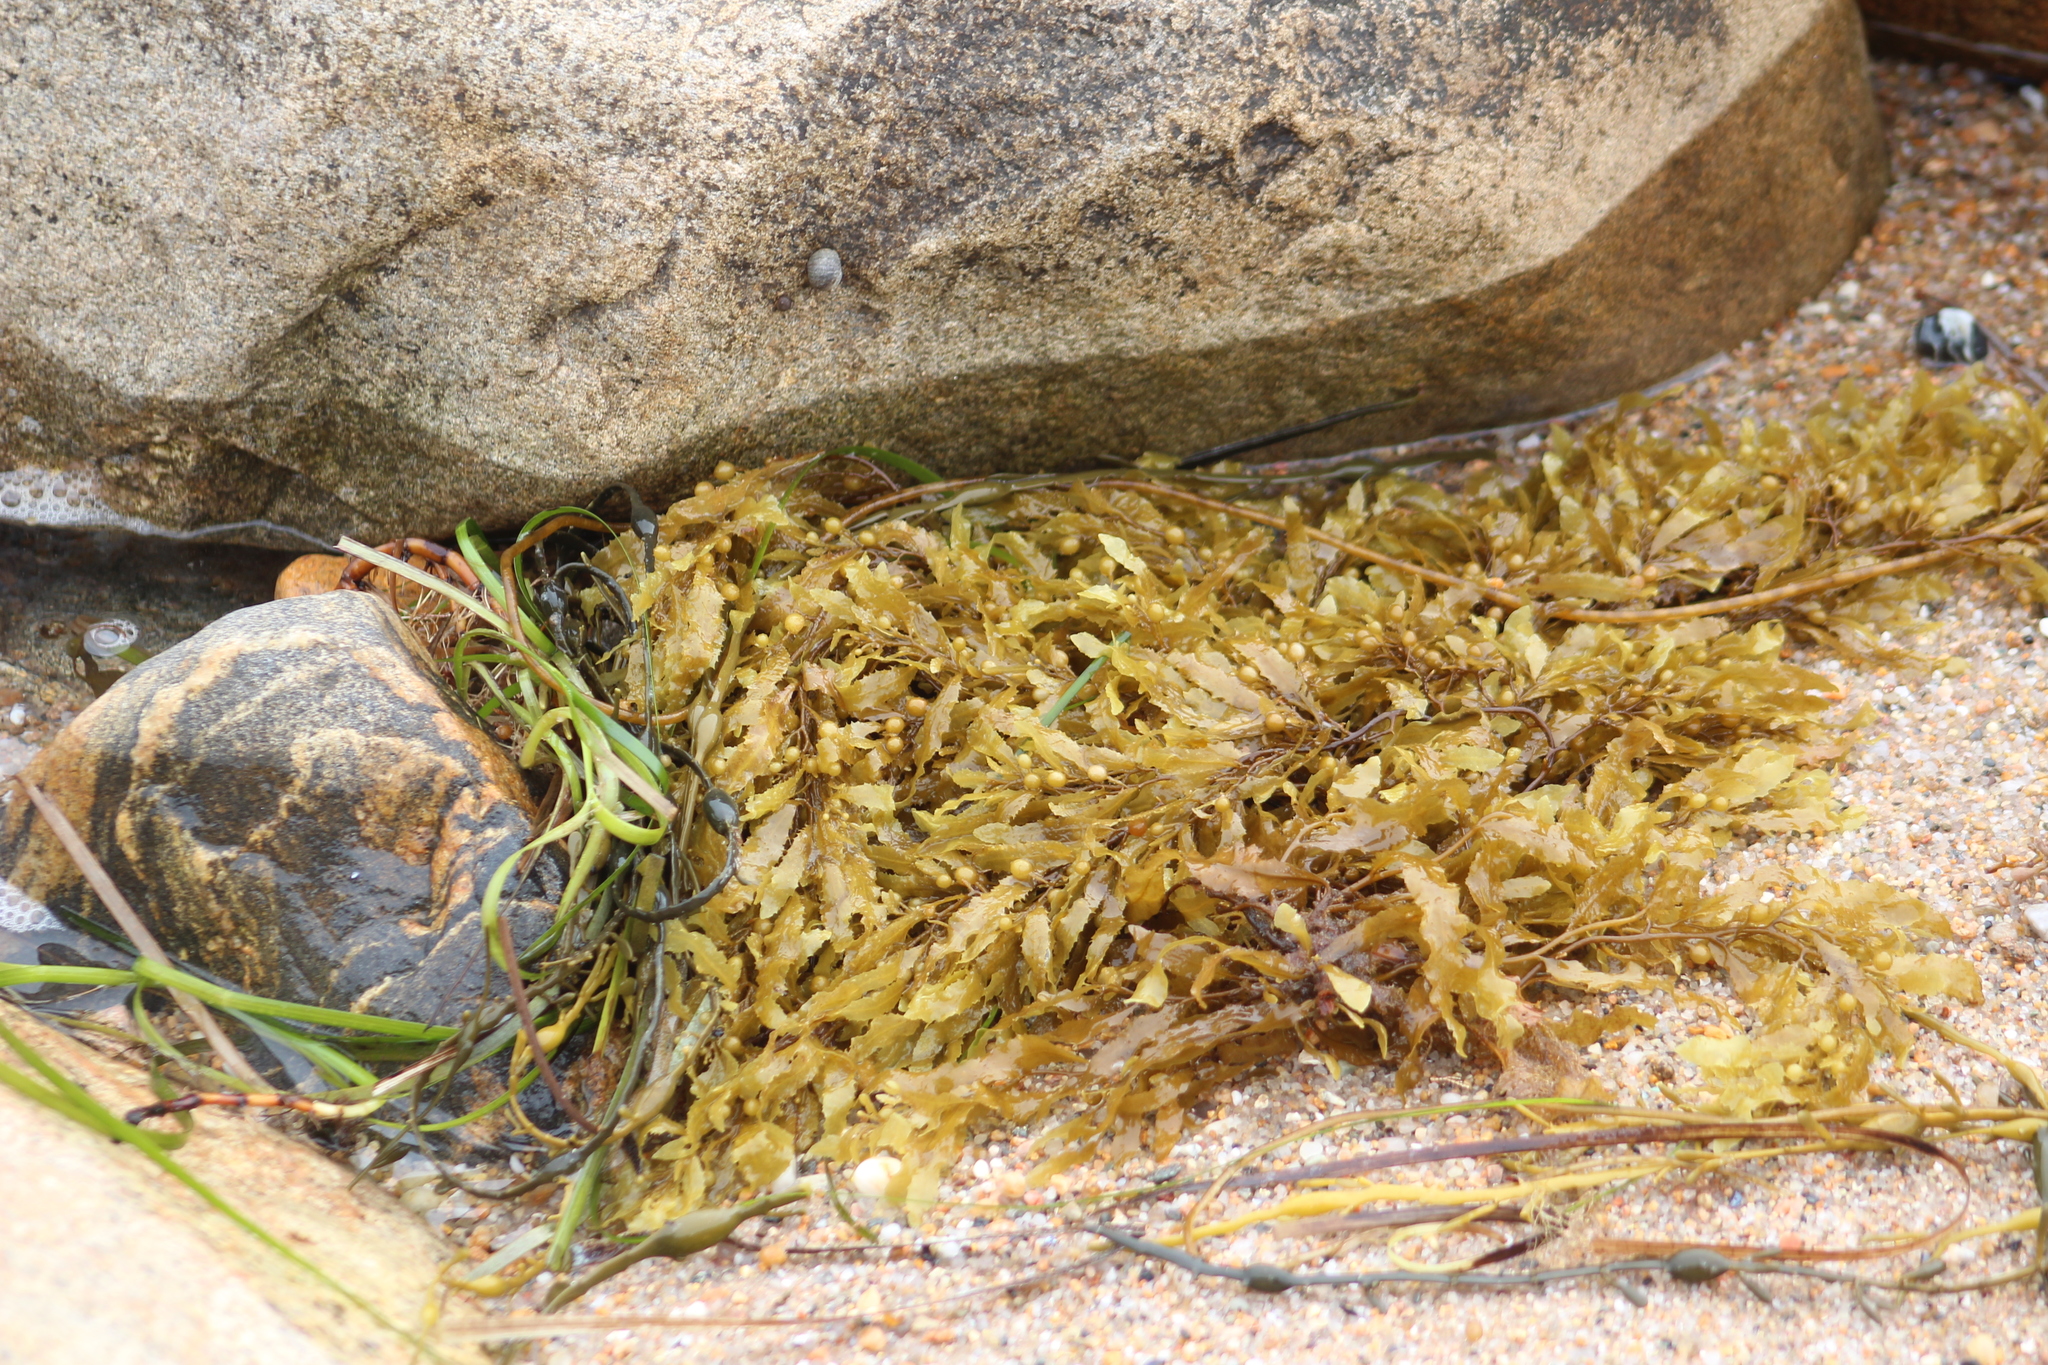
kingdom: Chromista
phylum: Ochrophyta
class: Phaeophyceae
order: Fucales
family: Sargassaceae
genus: Sargassum
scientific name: Sargassum fluitans
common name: Sargassum seaweed
